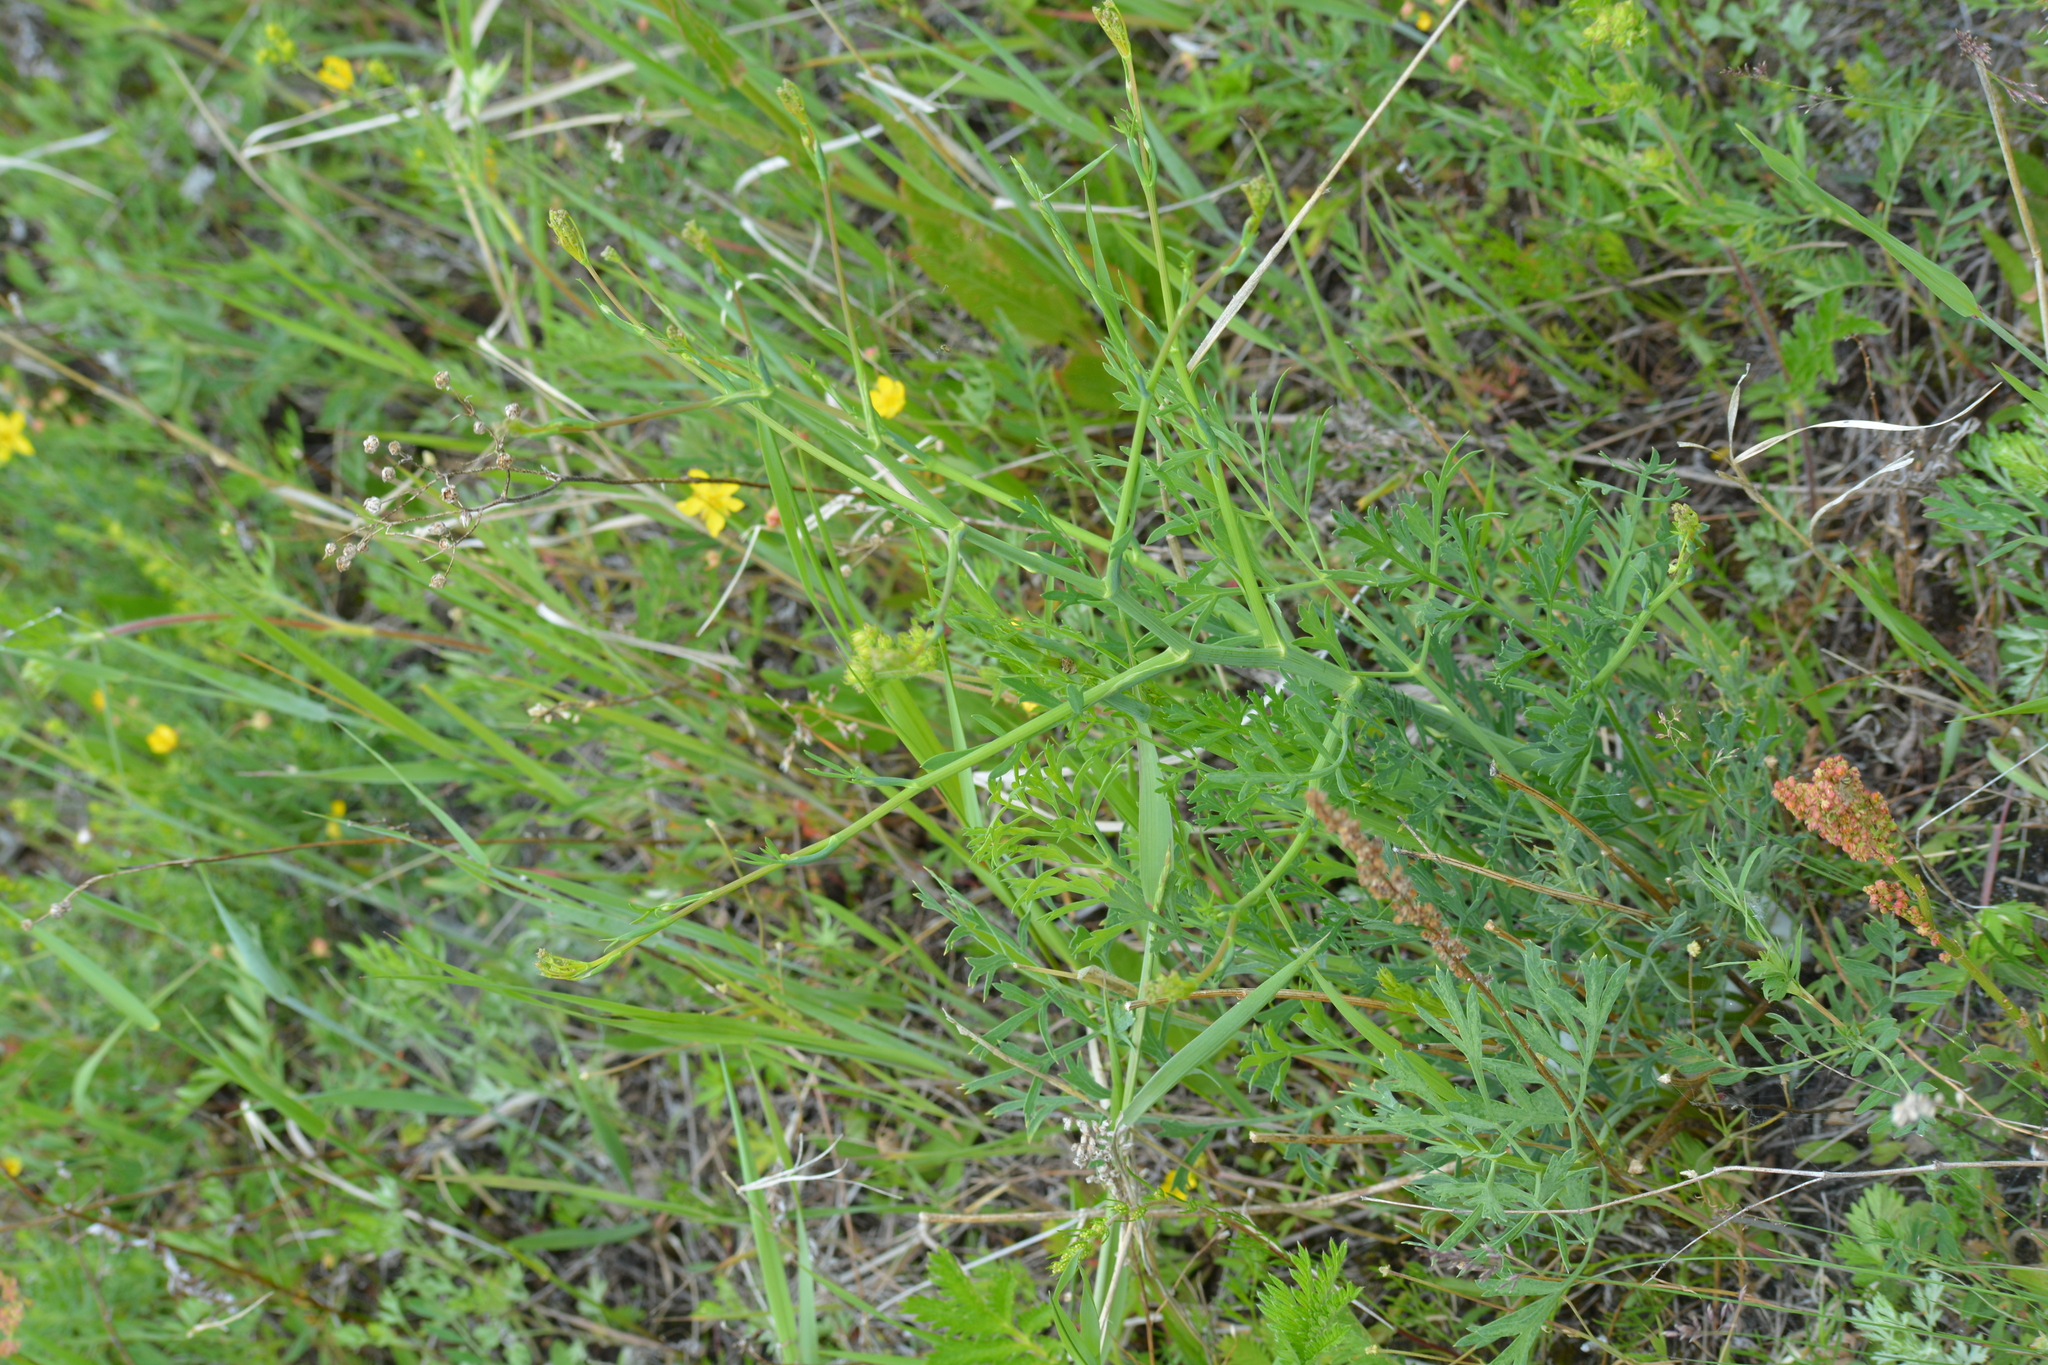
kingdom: Plantae
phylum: Tracheophyta
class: Magnoliopsida
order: Apiales
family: Apiaceae
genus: Saposhnikovia
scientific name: Saposhnikovia divaricata
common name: Siler
